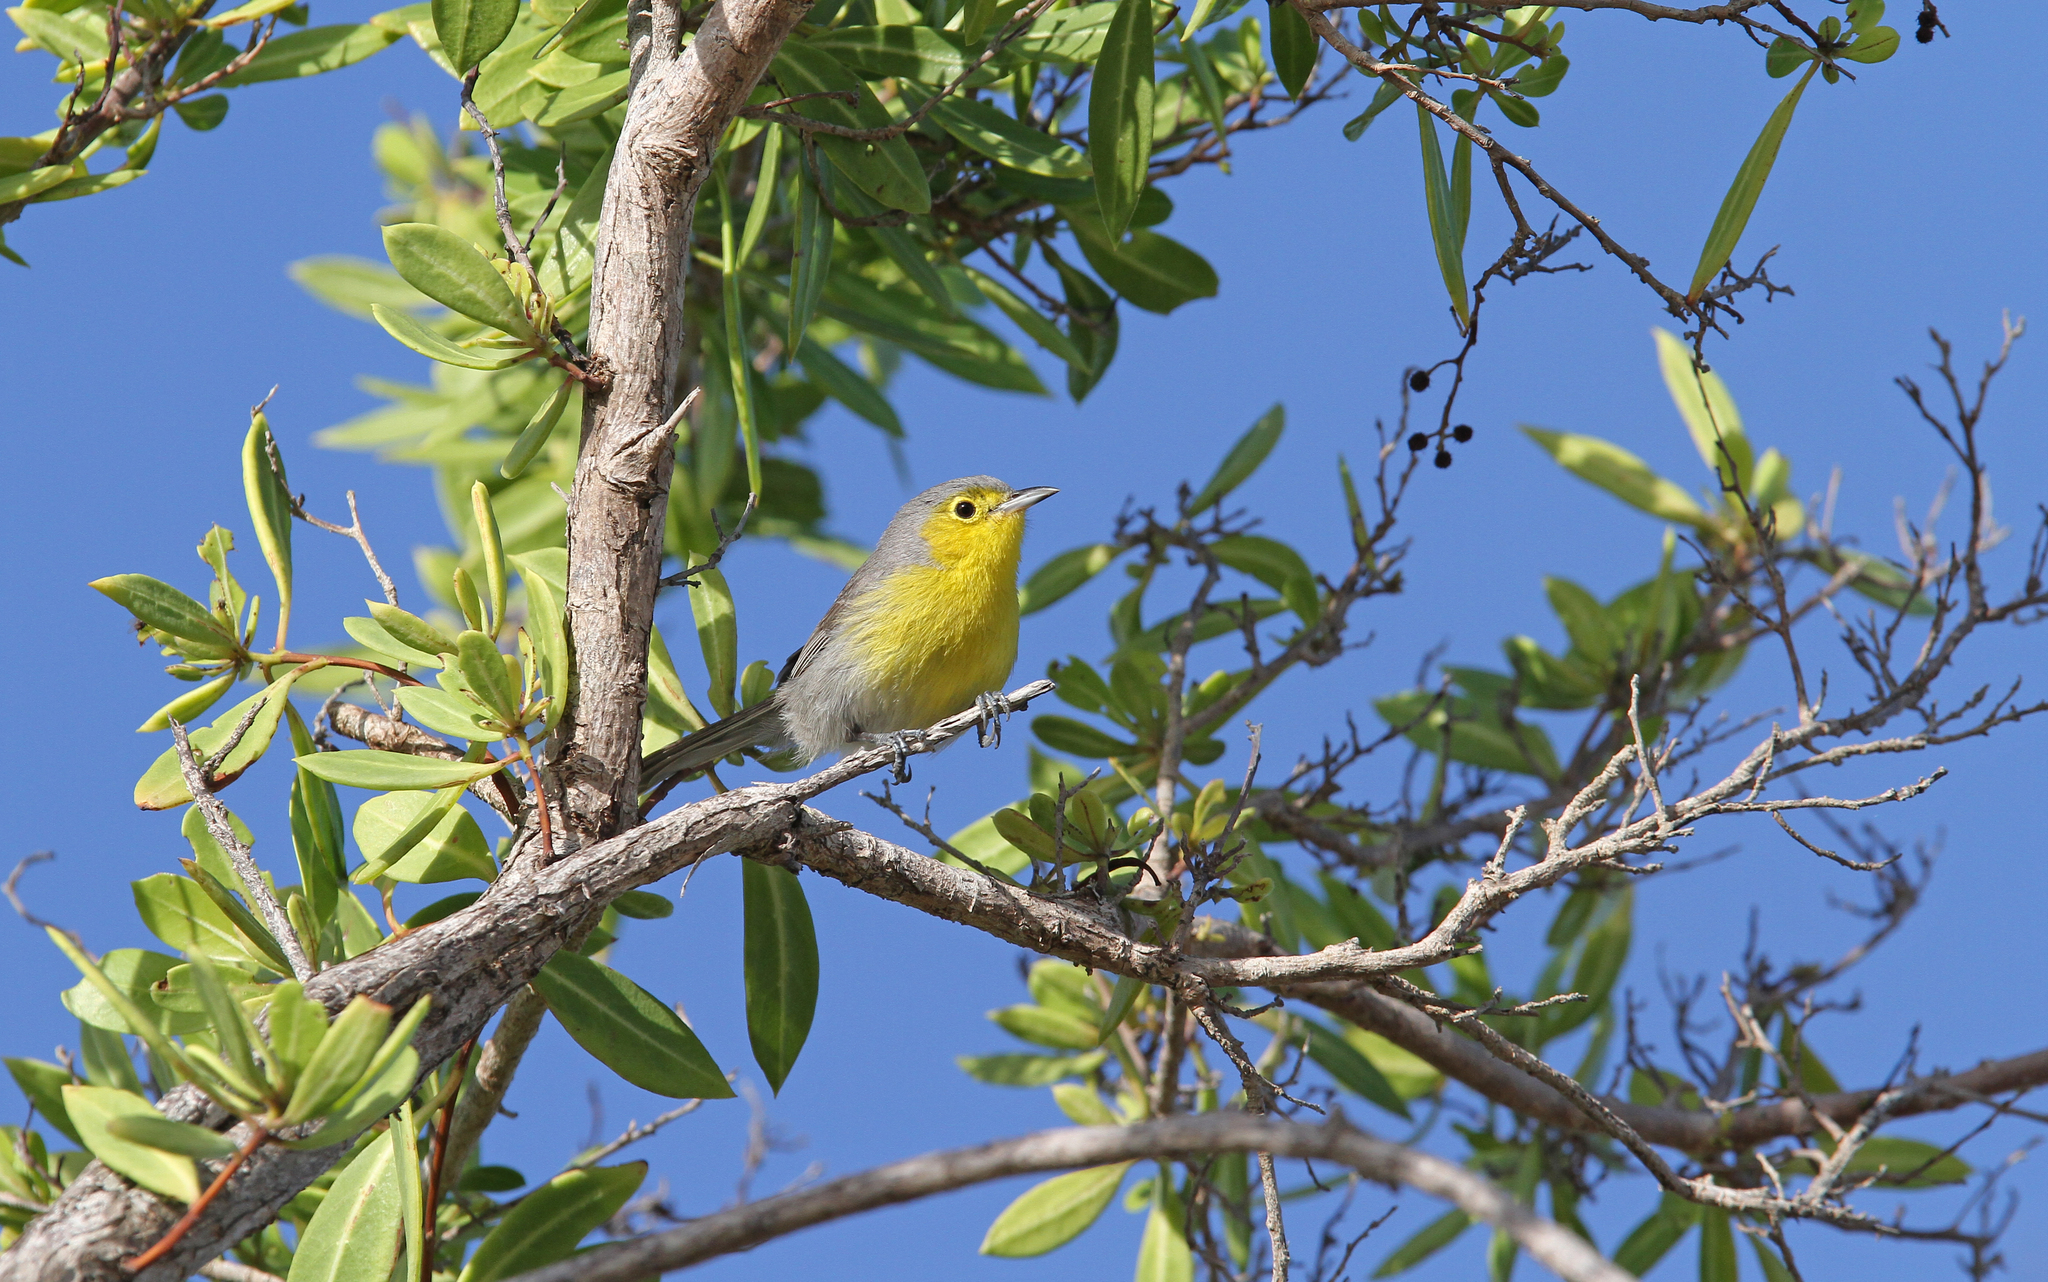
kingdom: Animalia
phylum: Chordata
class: Aves
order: Passeriformes
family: Parulidae
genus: Teretistris
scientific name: Teretistris fornsi
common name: Oriente warbler
